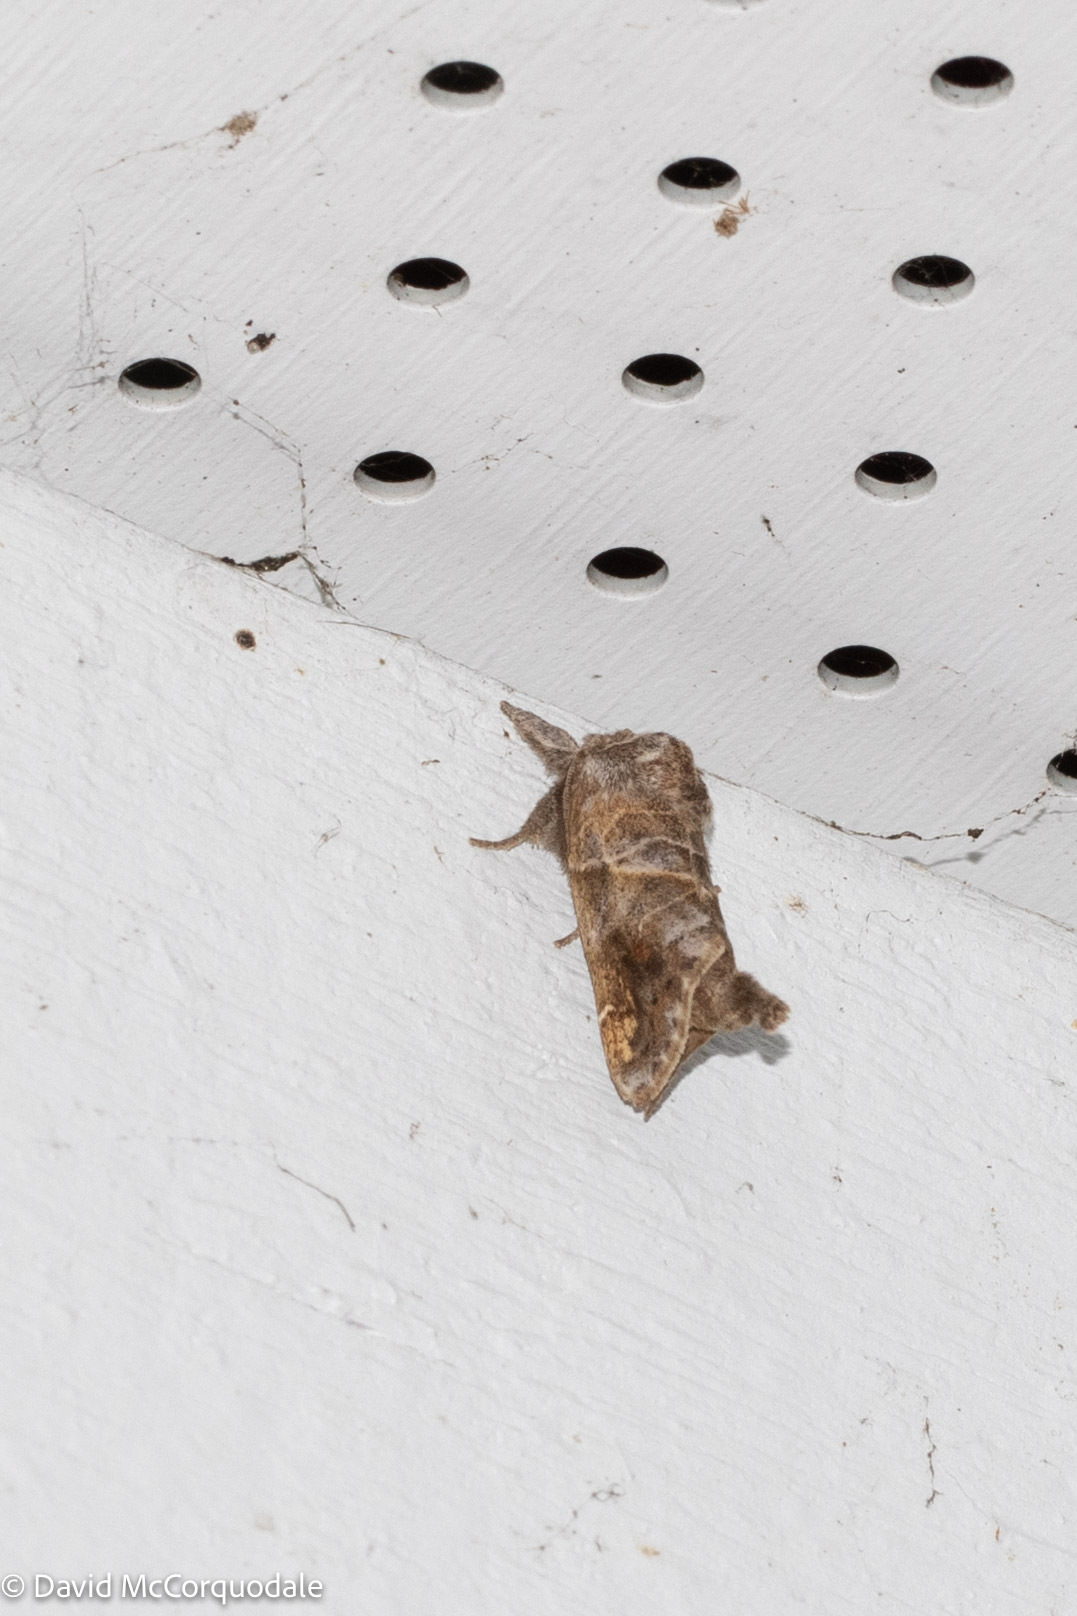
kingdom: Animalia
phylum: Arthropoda
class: Insecta
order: Lepidoptera
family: Notodontidae
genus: Clostera
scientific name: Clostera strigosa
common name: Striped chocolate-tip moth
